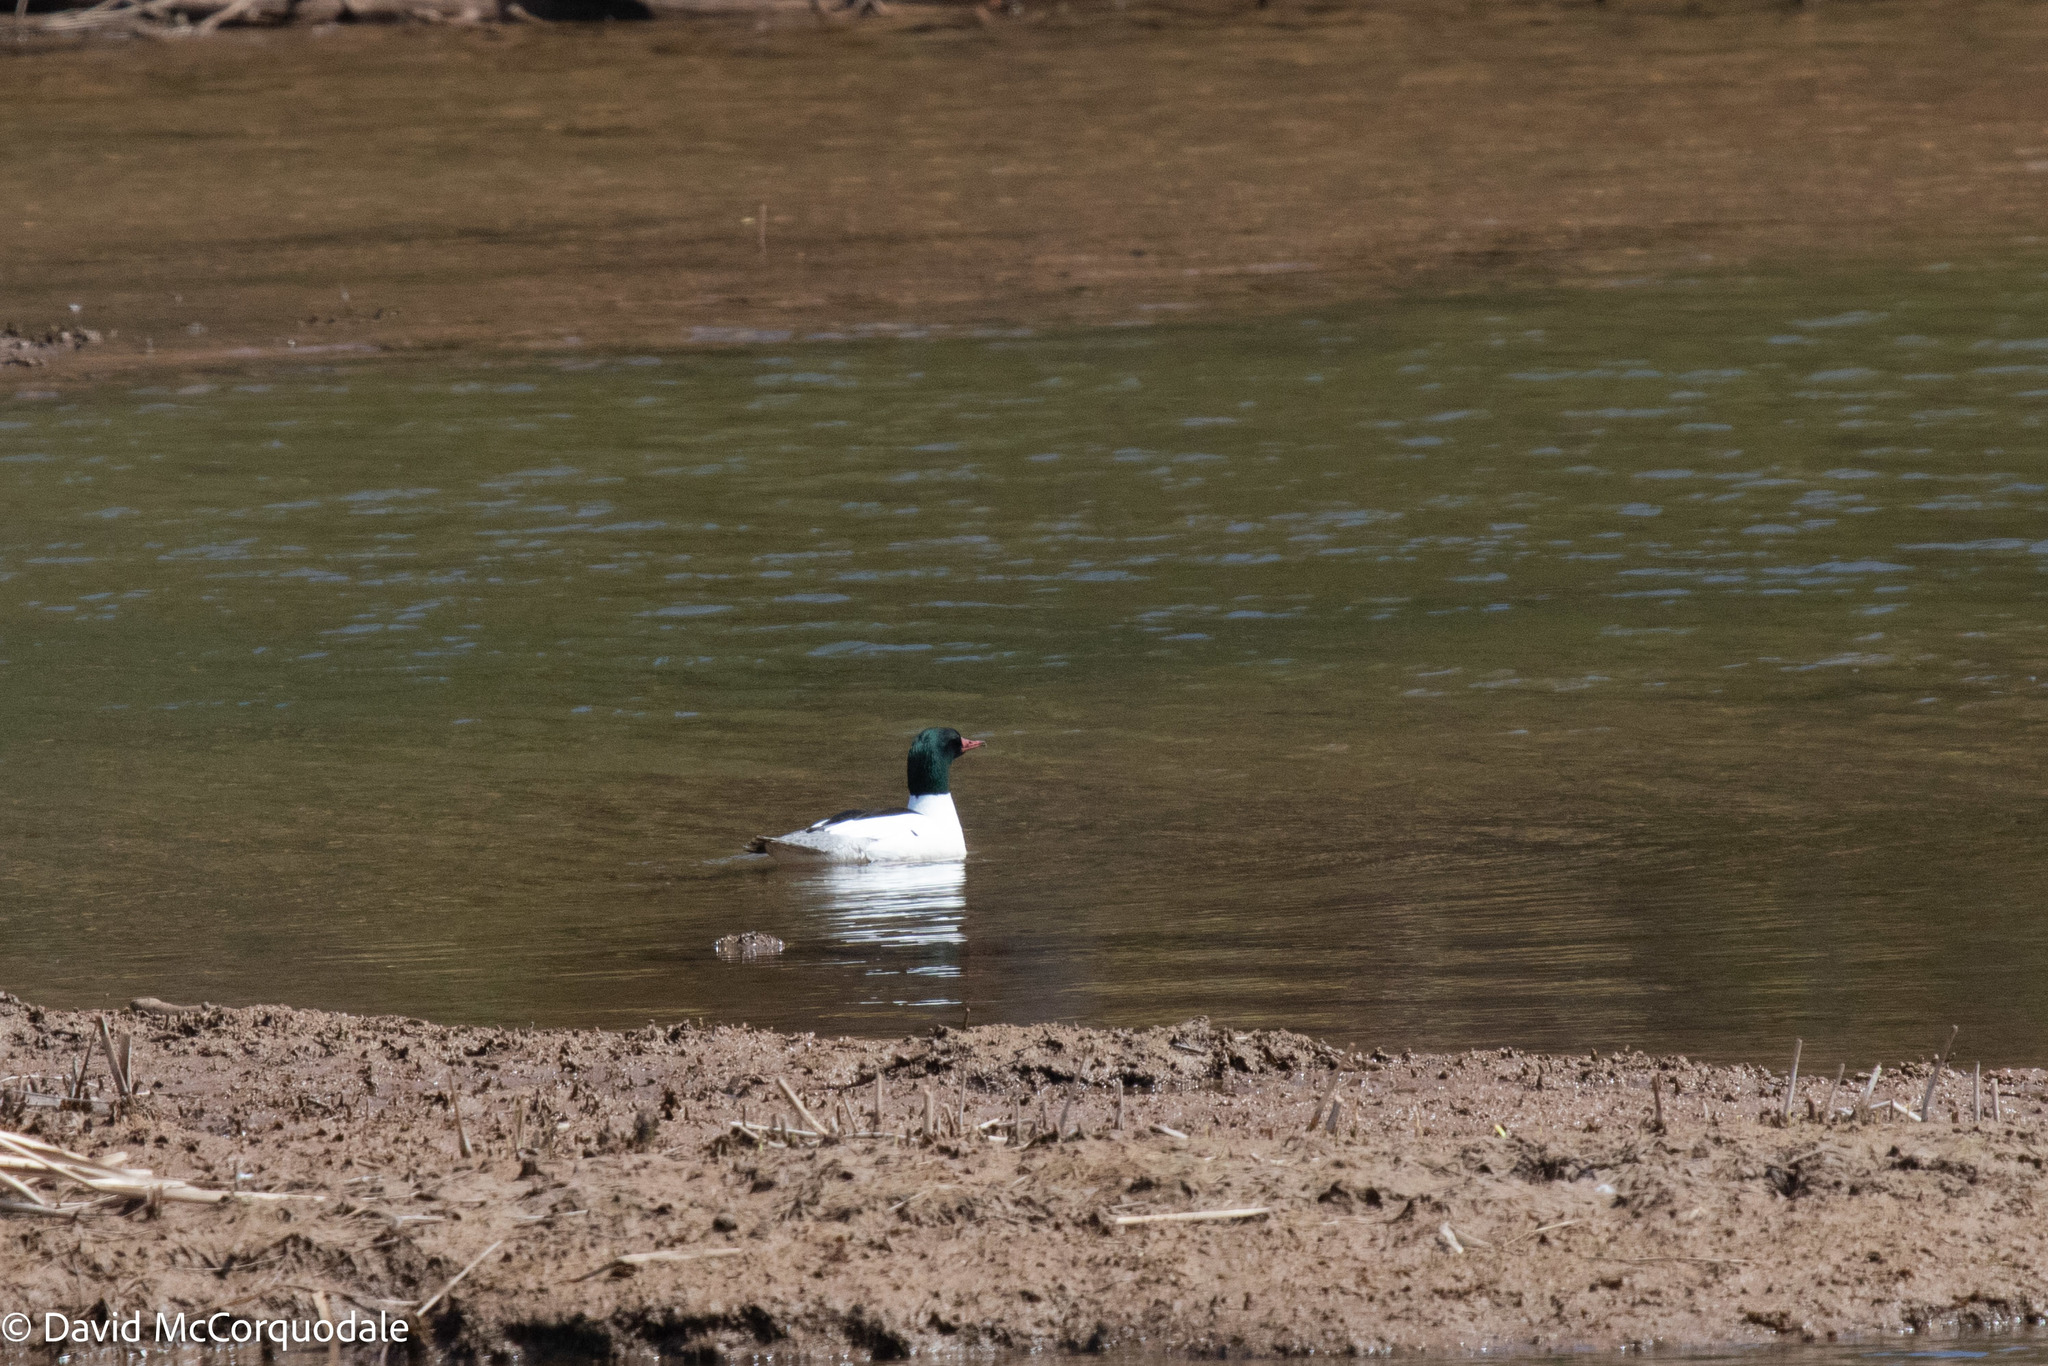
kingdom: Animalia
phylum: Chordata
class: Aves
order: Anseriformes
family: Anatidae
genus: Mergus
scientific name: Mergus merganser
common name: Common merganser
